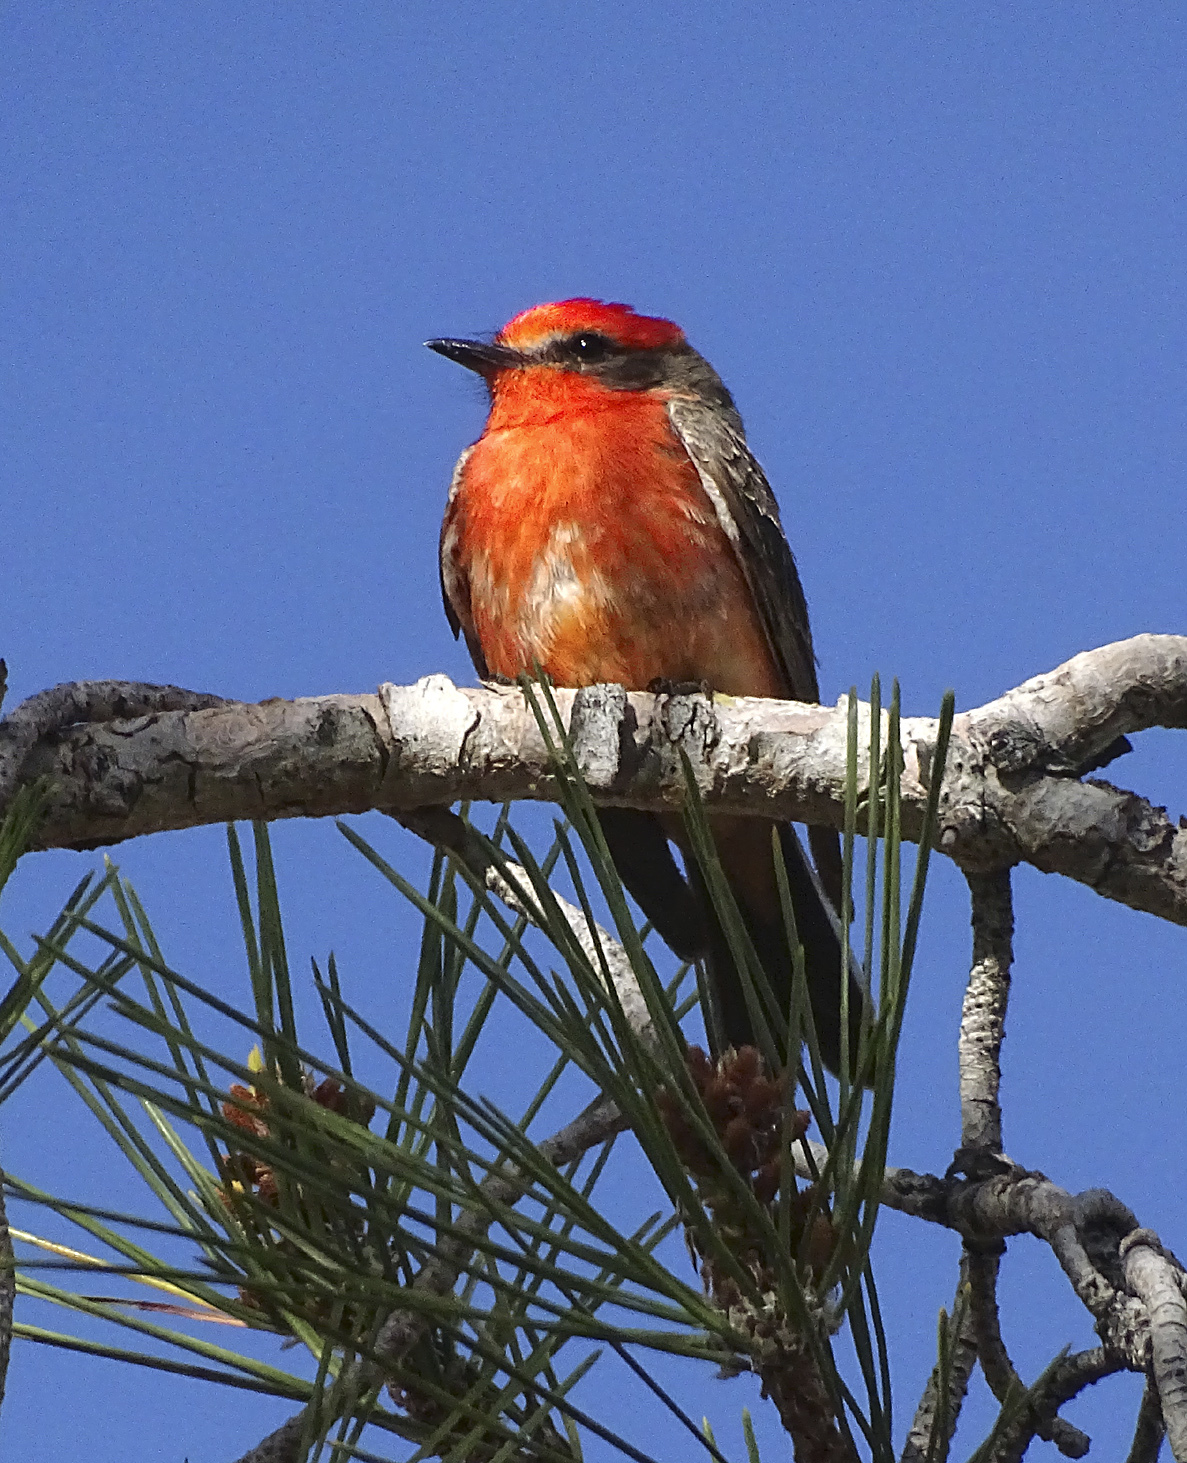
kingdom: Animalia
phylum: Chordata
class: Aves
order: Passeriformes
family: Tyrannidae
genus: Pyrocephalus
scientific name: Pyrocephalus rubinus
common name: Vermilion flycatcher
